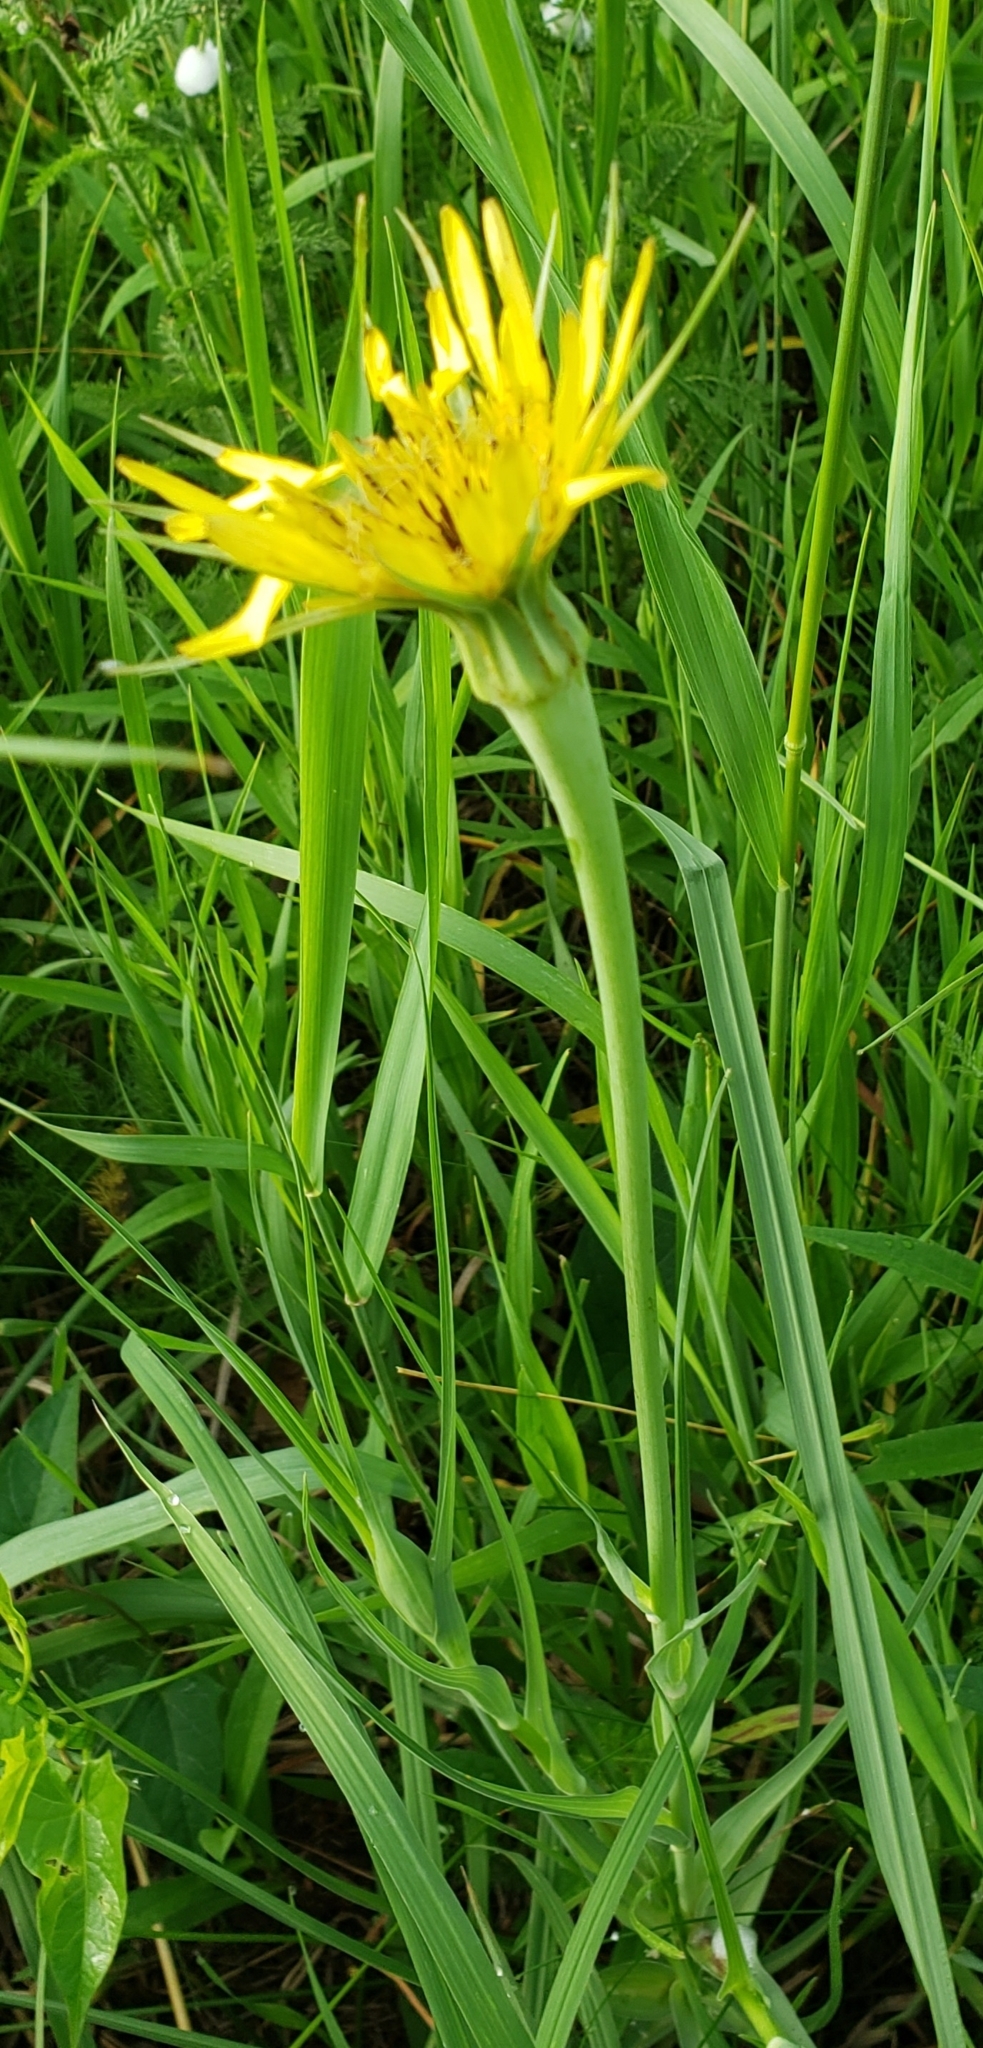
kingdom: Plantae
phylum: Tracheophyta
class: Magnoliopsida
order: Asterales
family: Asteraceae
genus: Tragopogon
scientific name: Tragopogon dubius
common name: Yellow salsify
